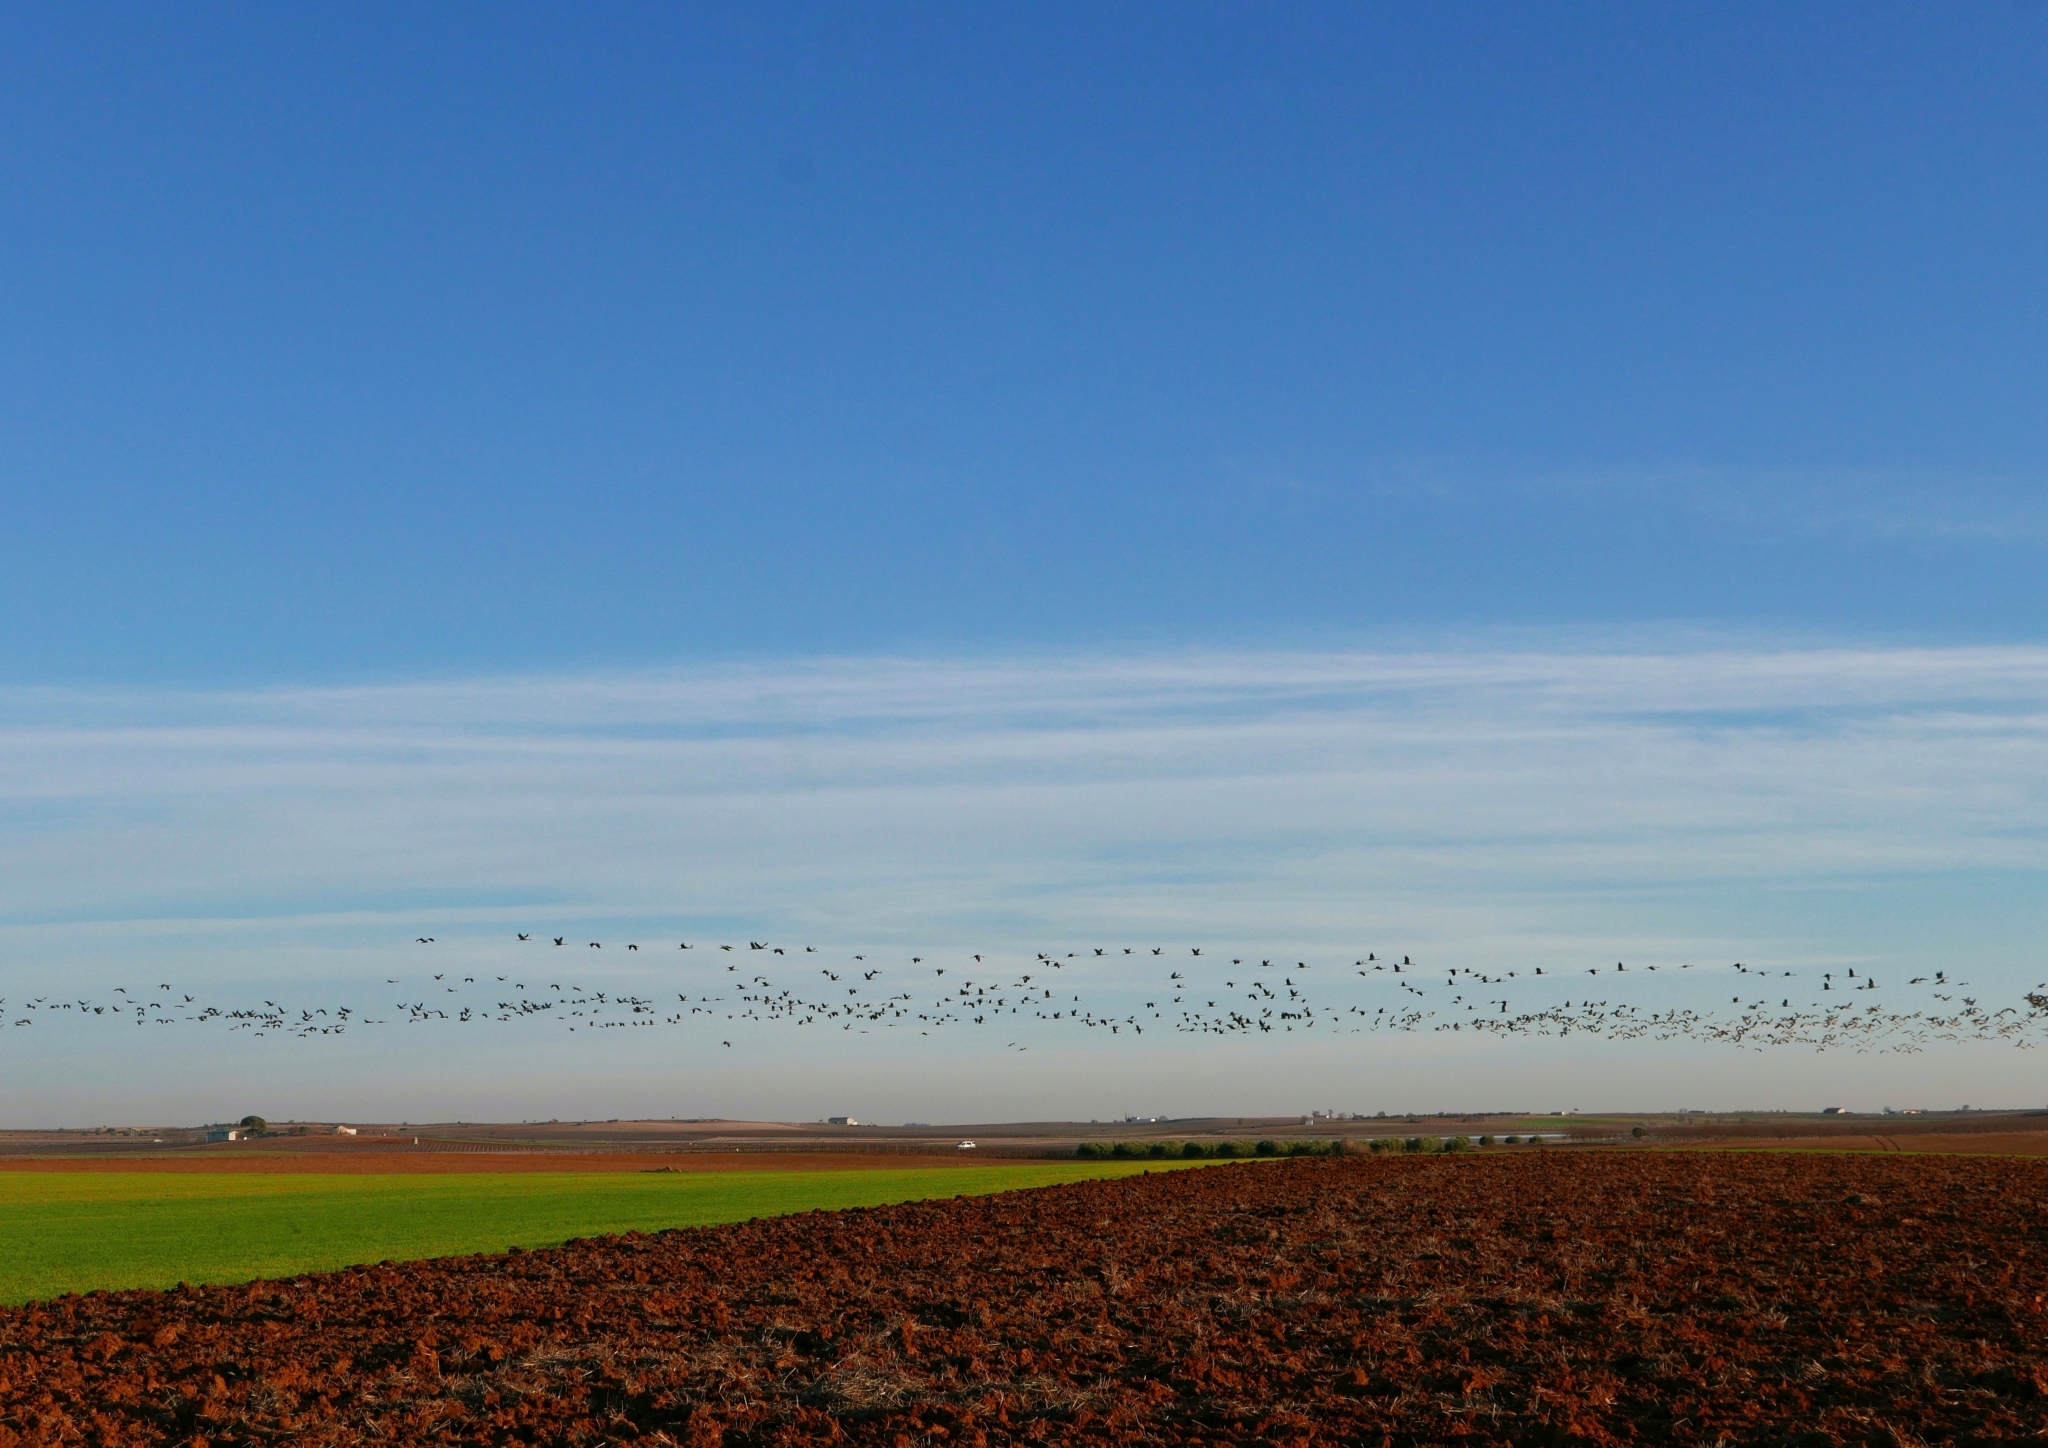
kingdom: Animalia
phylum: Chordata
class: Aves
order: Gruiformes
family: Gruidae
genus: Grus
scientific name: Grus grus
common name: Common crane
